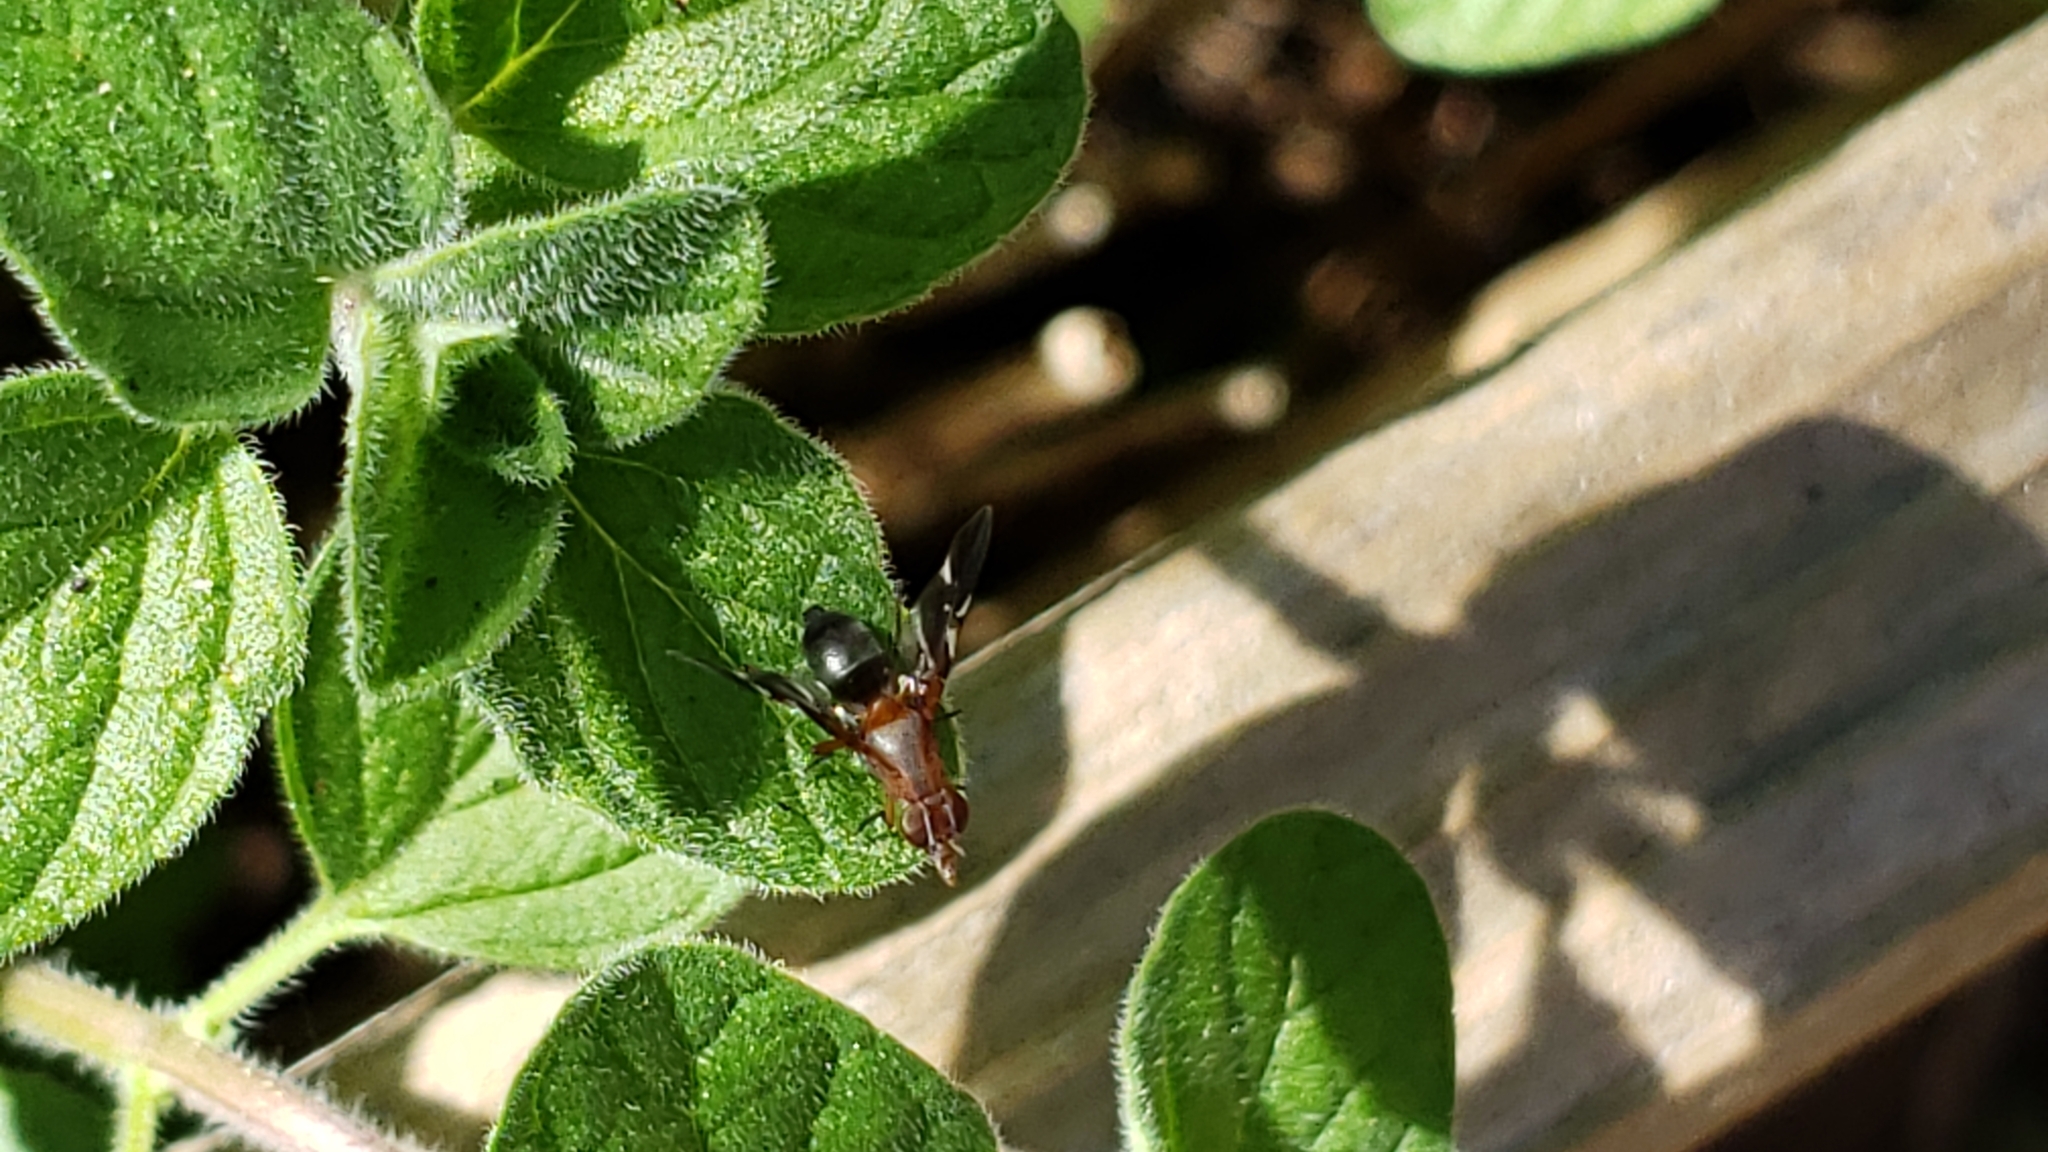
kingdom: Animalia
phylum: Arthropoda
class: Insecta
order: Diptera
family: Ulidiidae
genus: Delphinia
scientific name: Delphinia picta
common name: Common picture-winged fly
